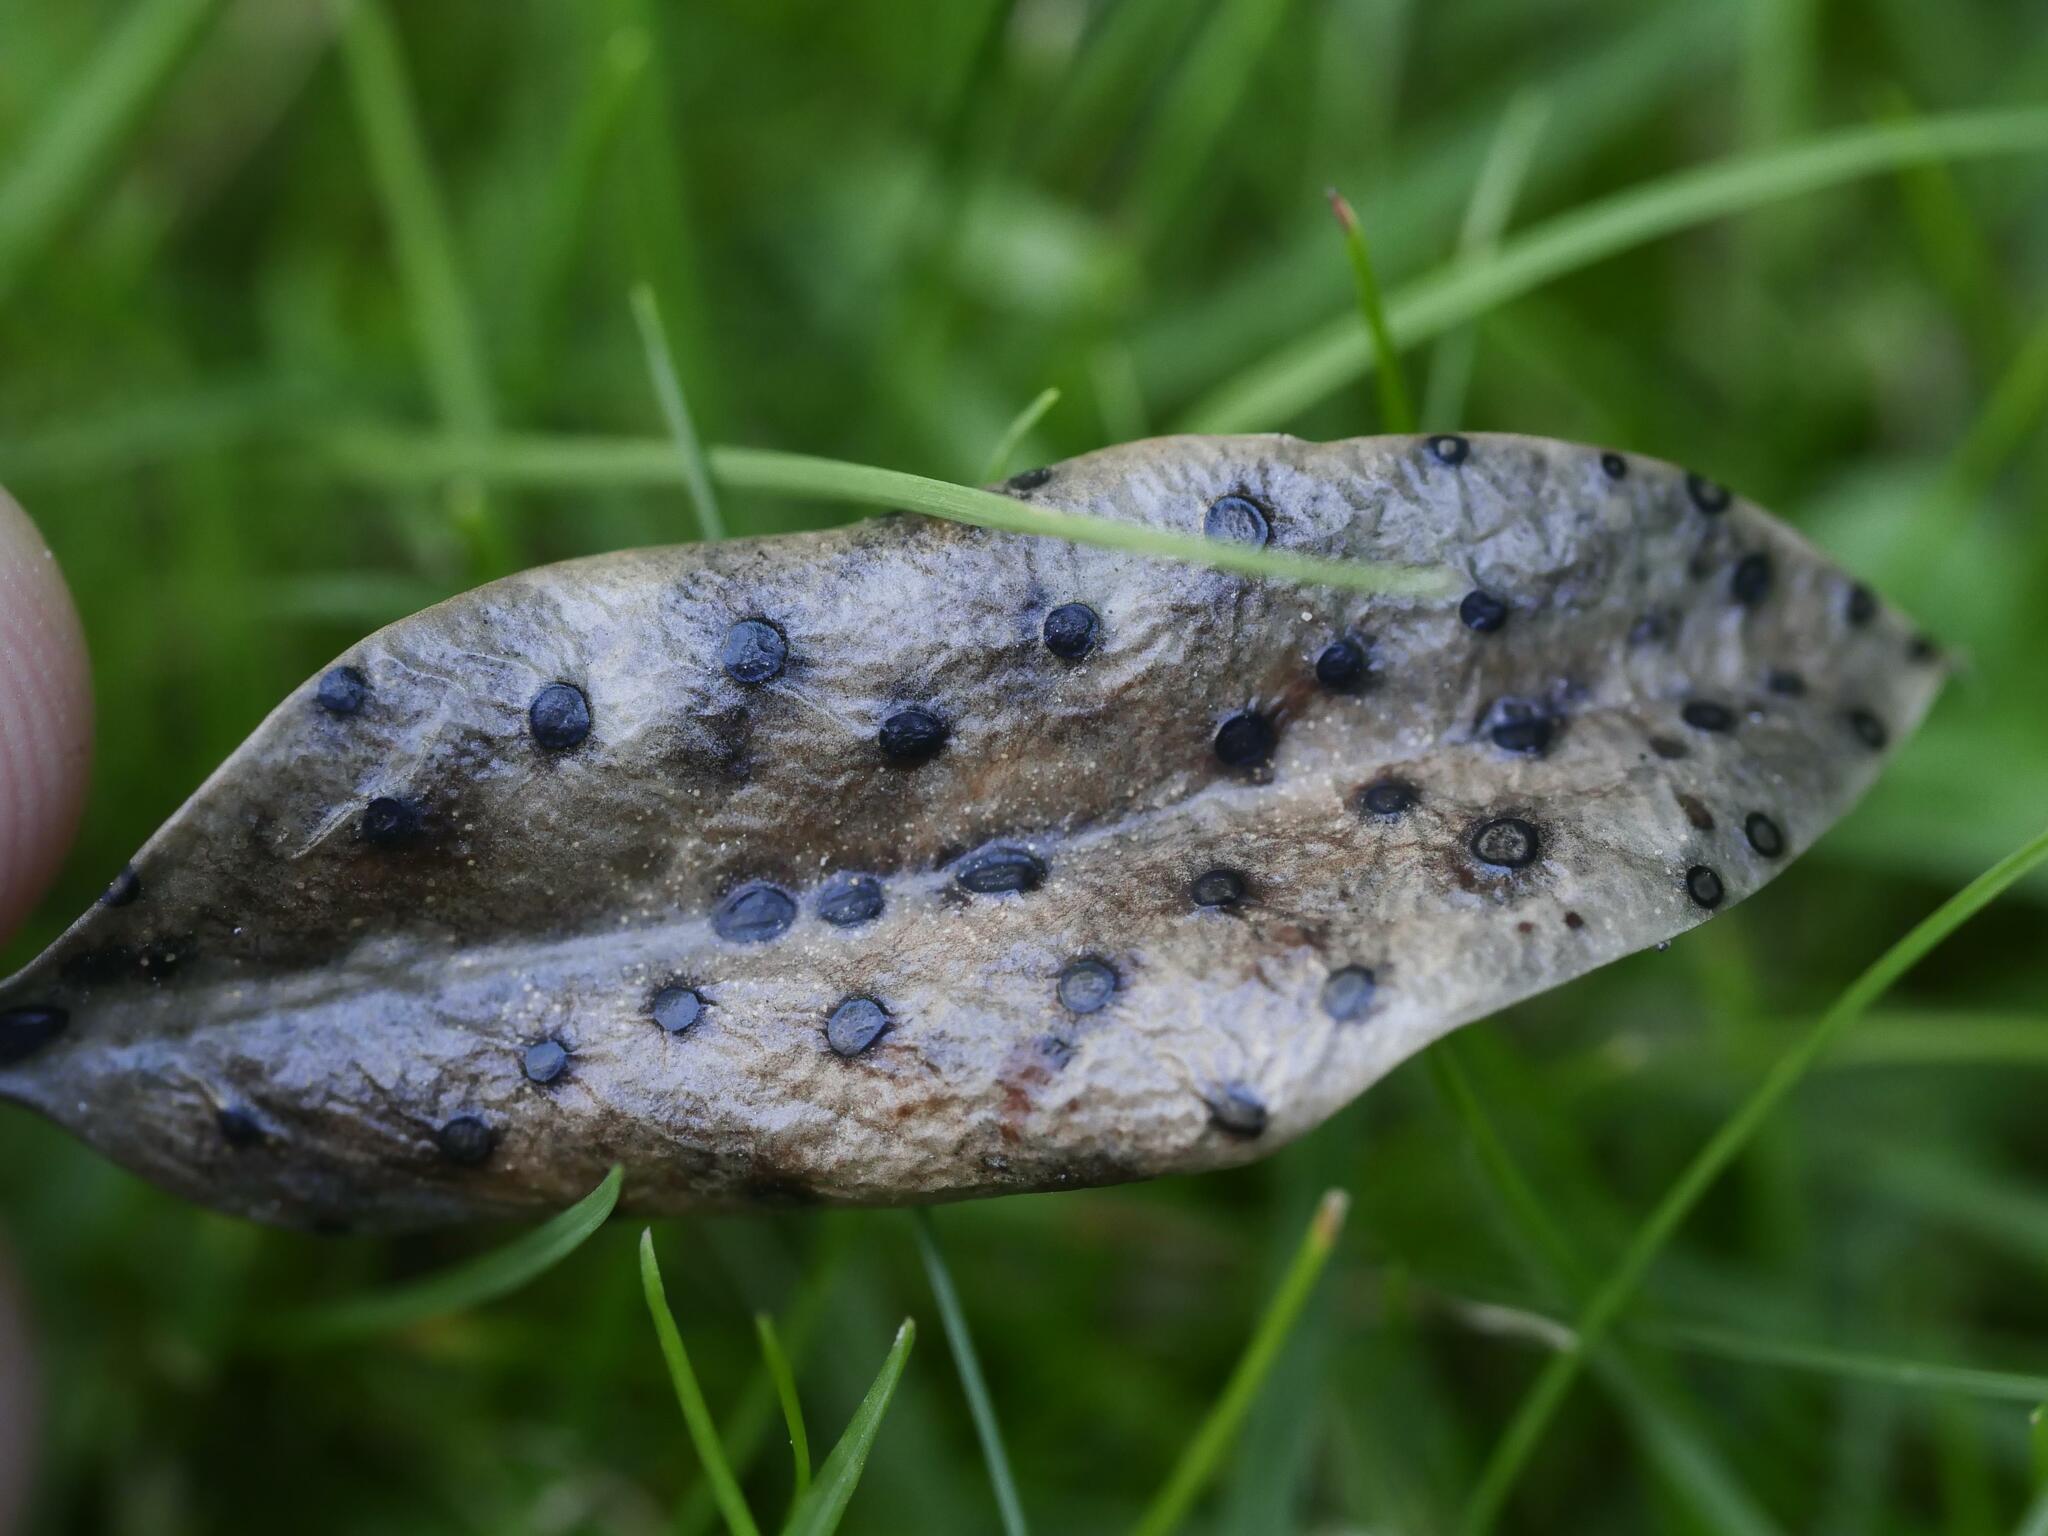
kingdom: Fungi
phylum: Ascomycota
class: Leotiomycetes
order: Helotiales
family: Cenangiaceae
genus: Trochila
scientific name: Trochila ilicina
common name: Holly speckle
